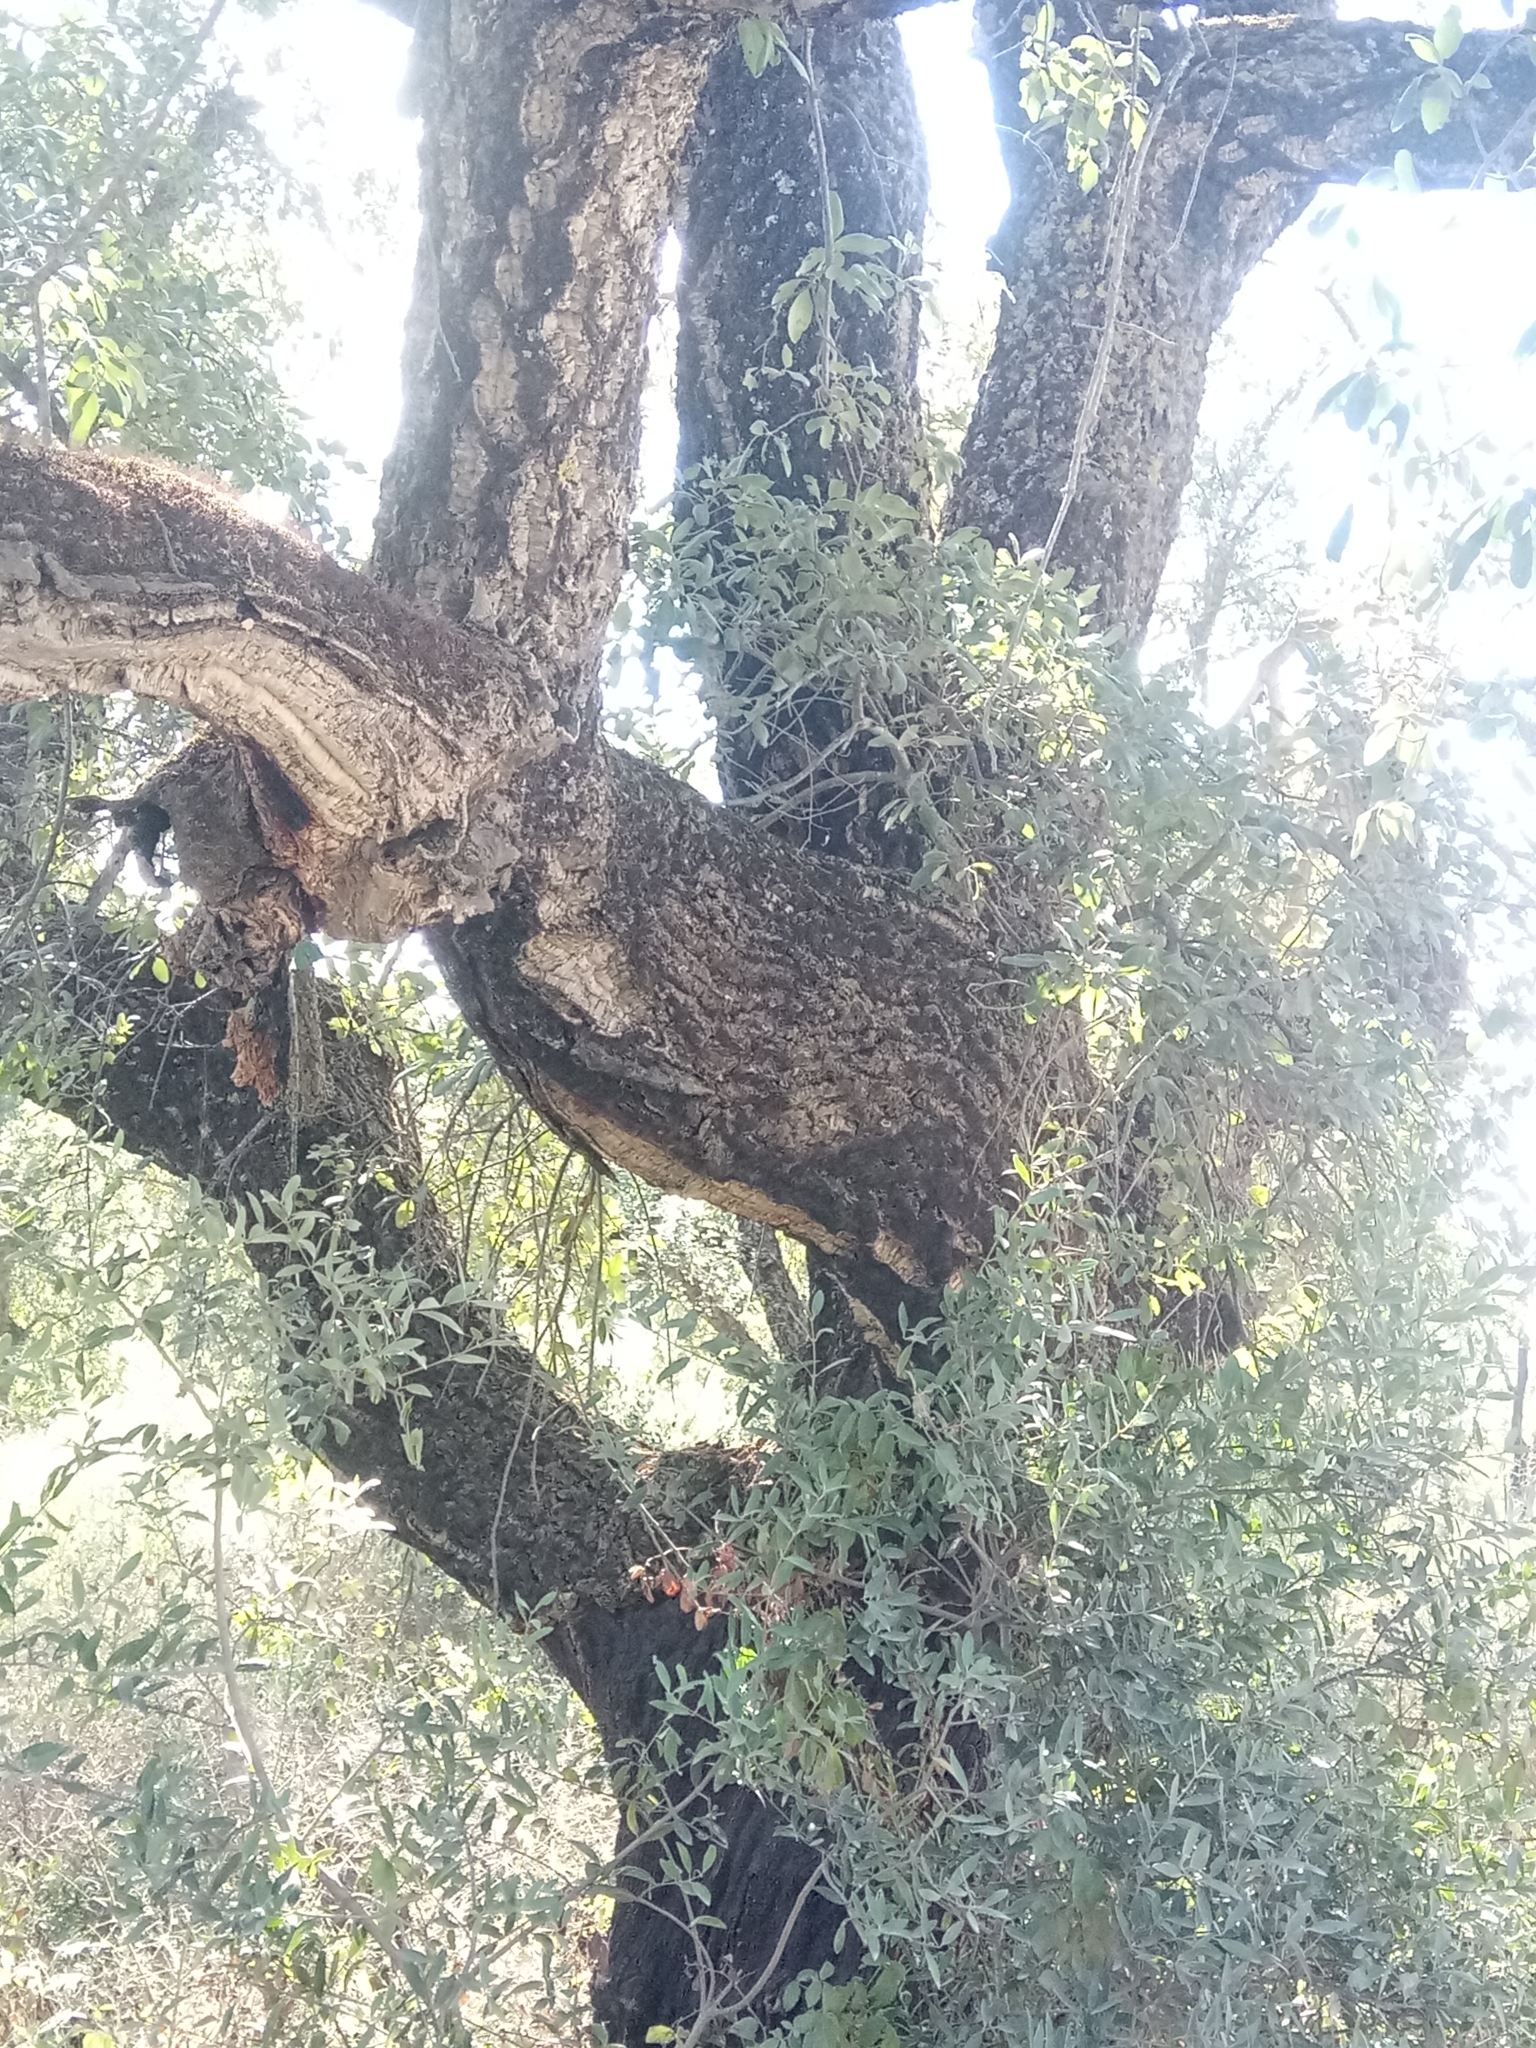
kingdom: Plantae
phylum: Tracheophyta
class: Magnoliopsida
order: Fagales
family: Fagaceae
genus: Quercus
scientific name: Quercus suber
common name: Cork oak
